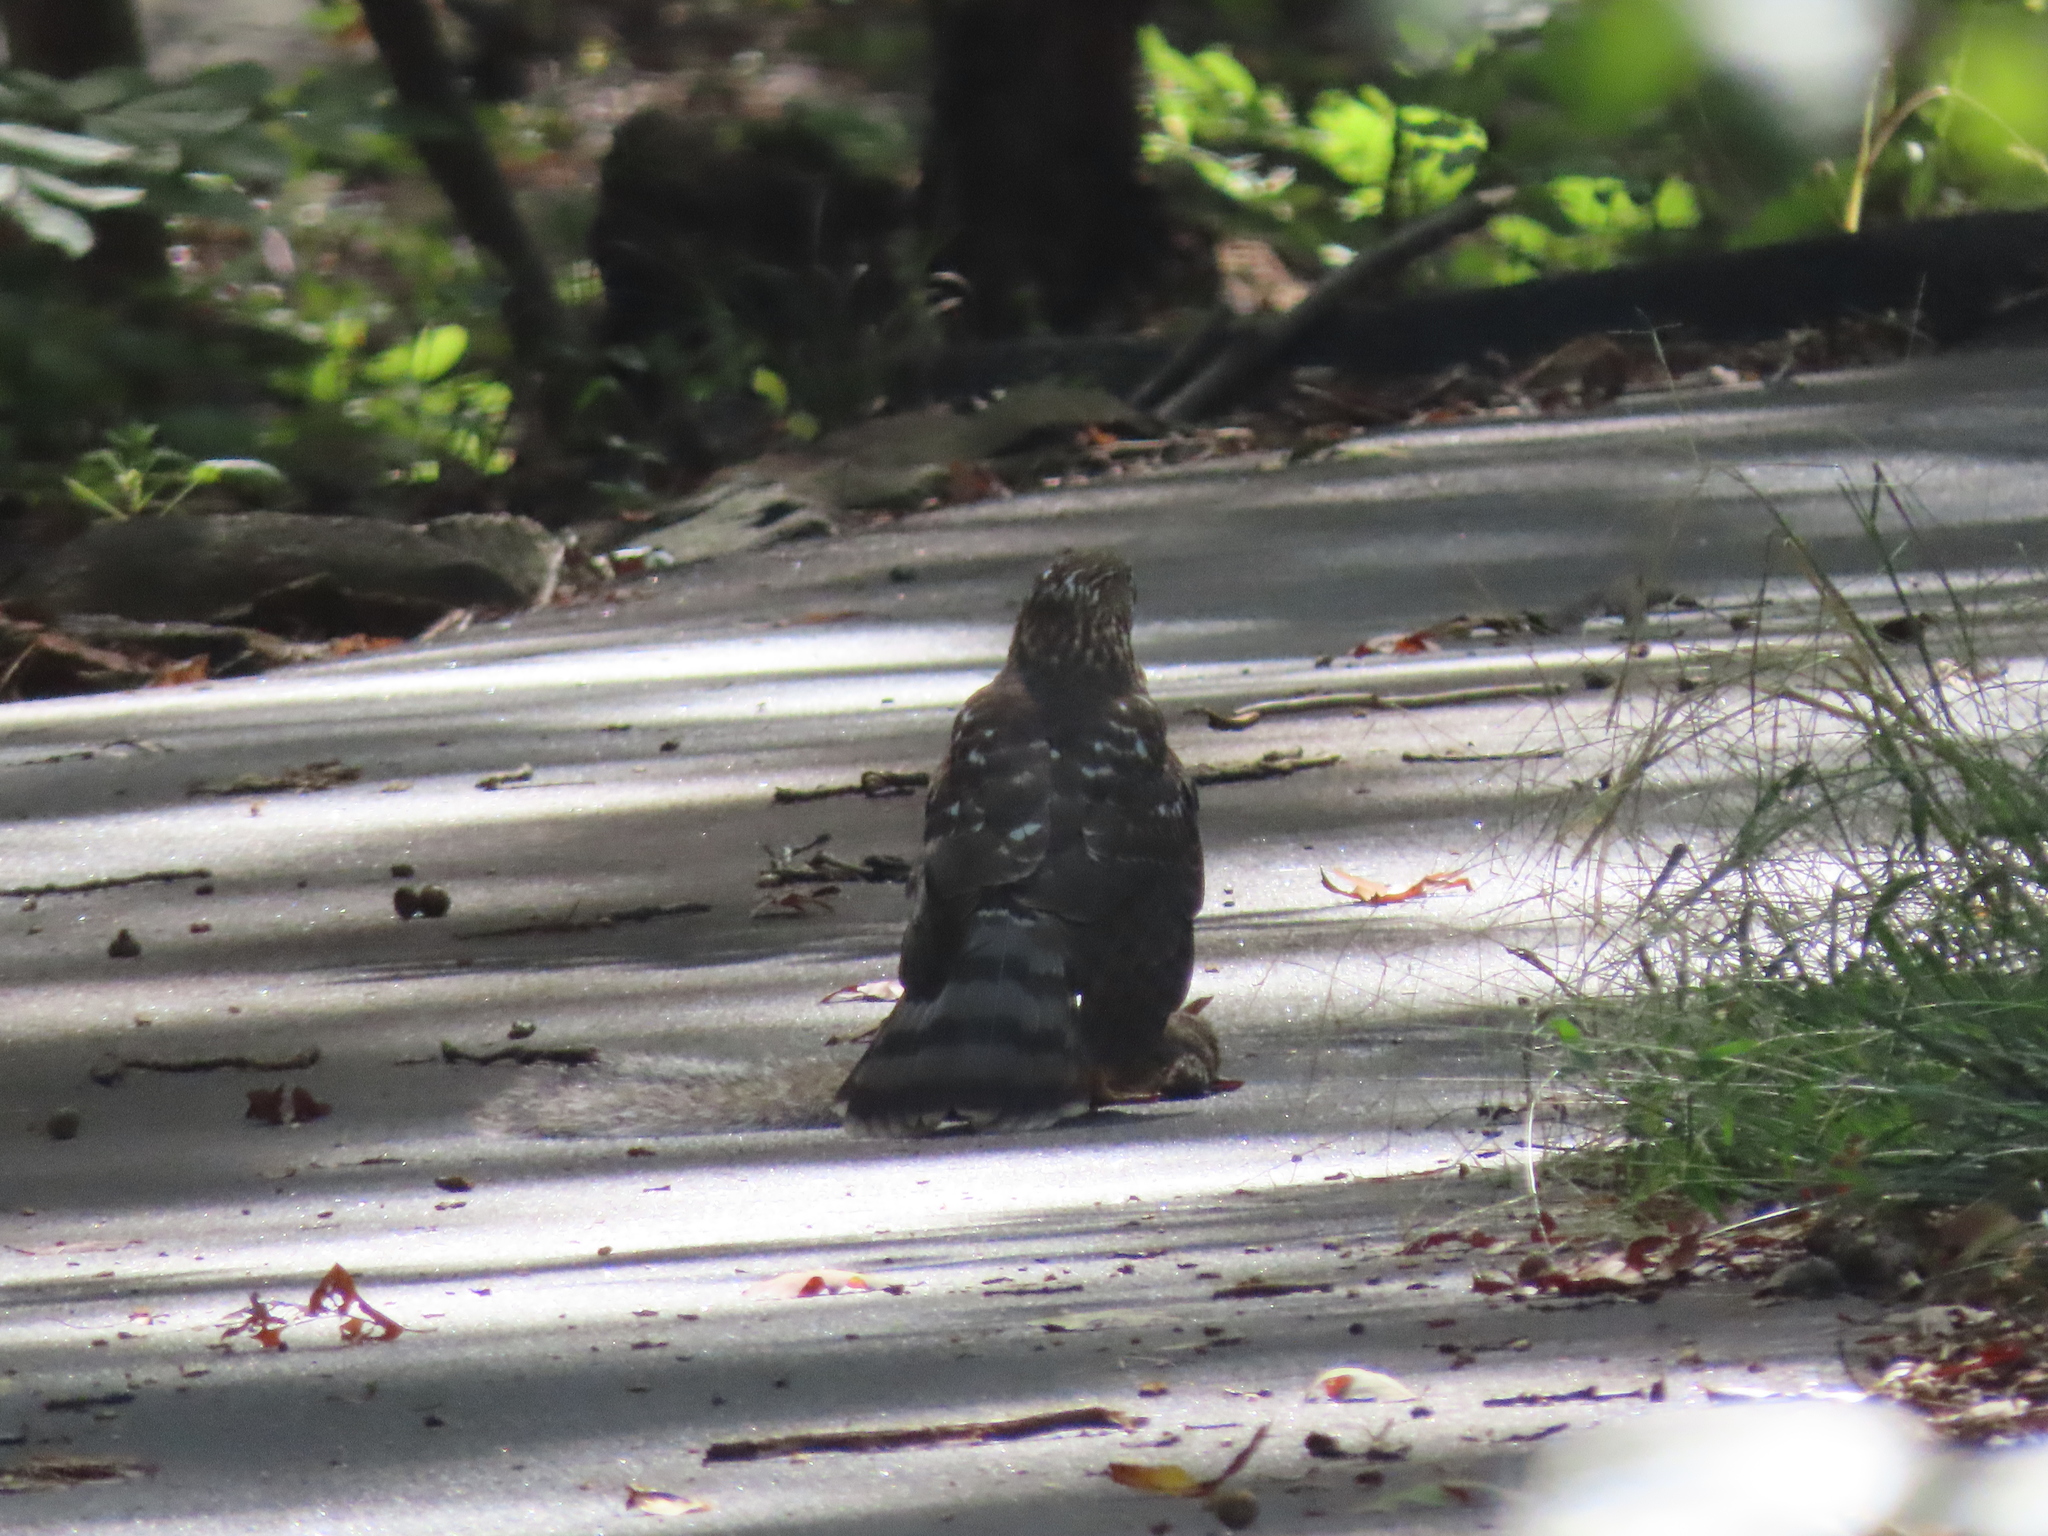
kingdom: Animalia
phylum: Chordata
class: Aves
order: Accipitriformes
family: Accipitridae
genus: Accipiter
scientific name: Accipiter cooperii
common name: Cooper's hawk
